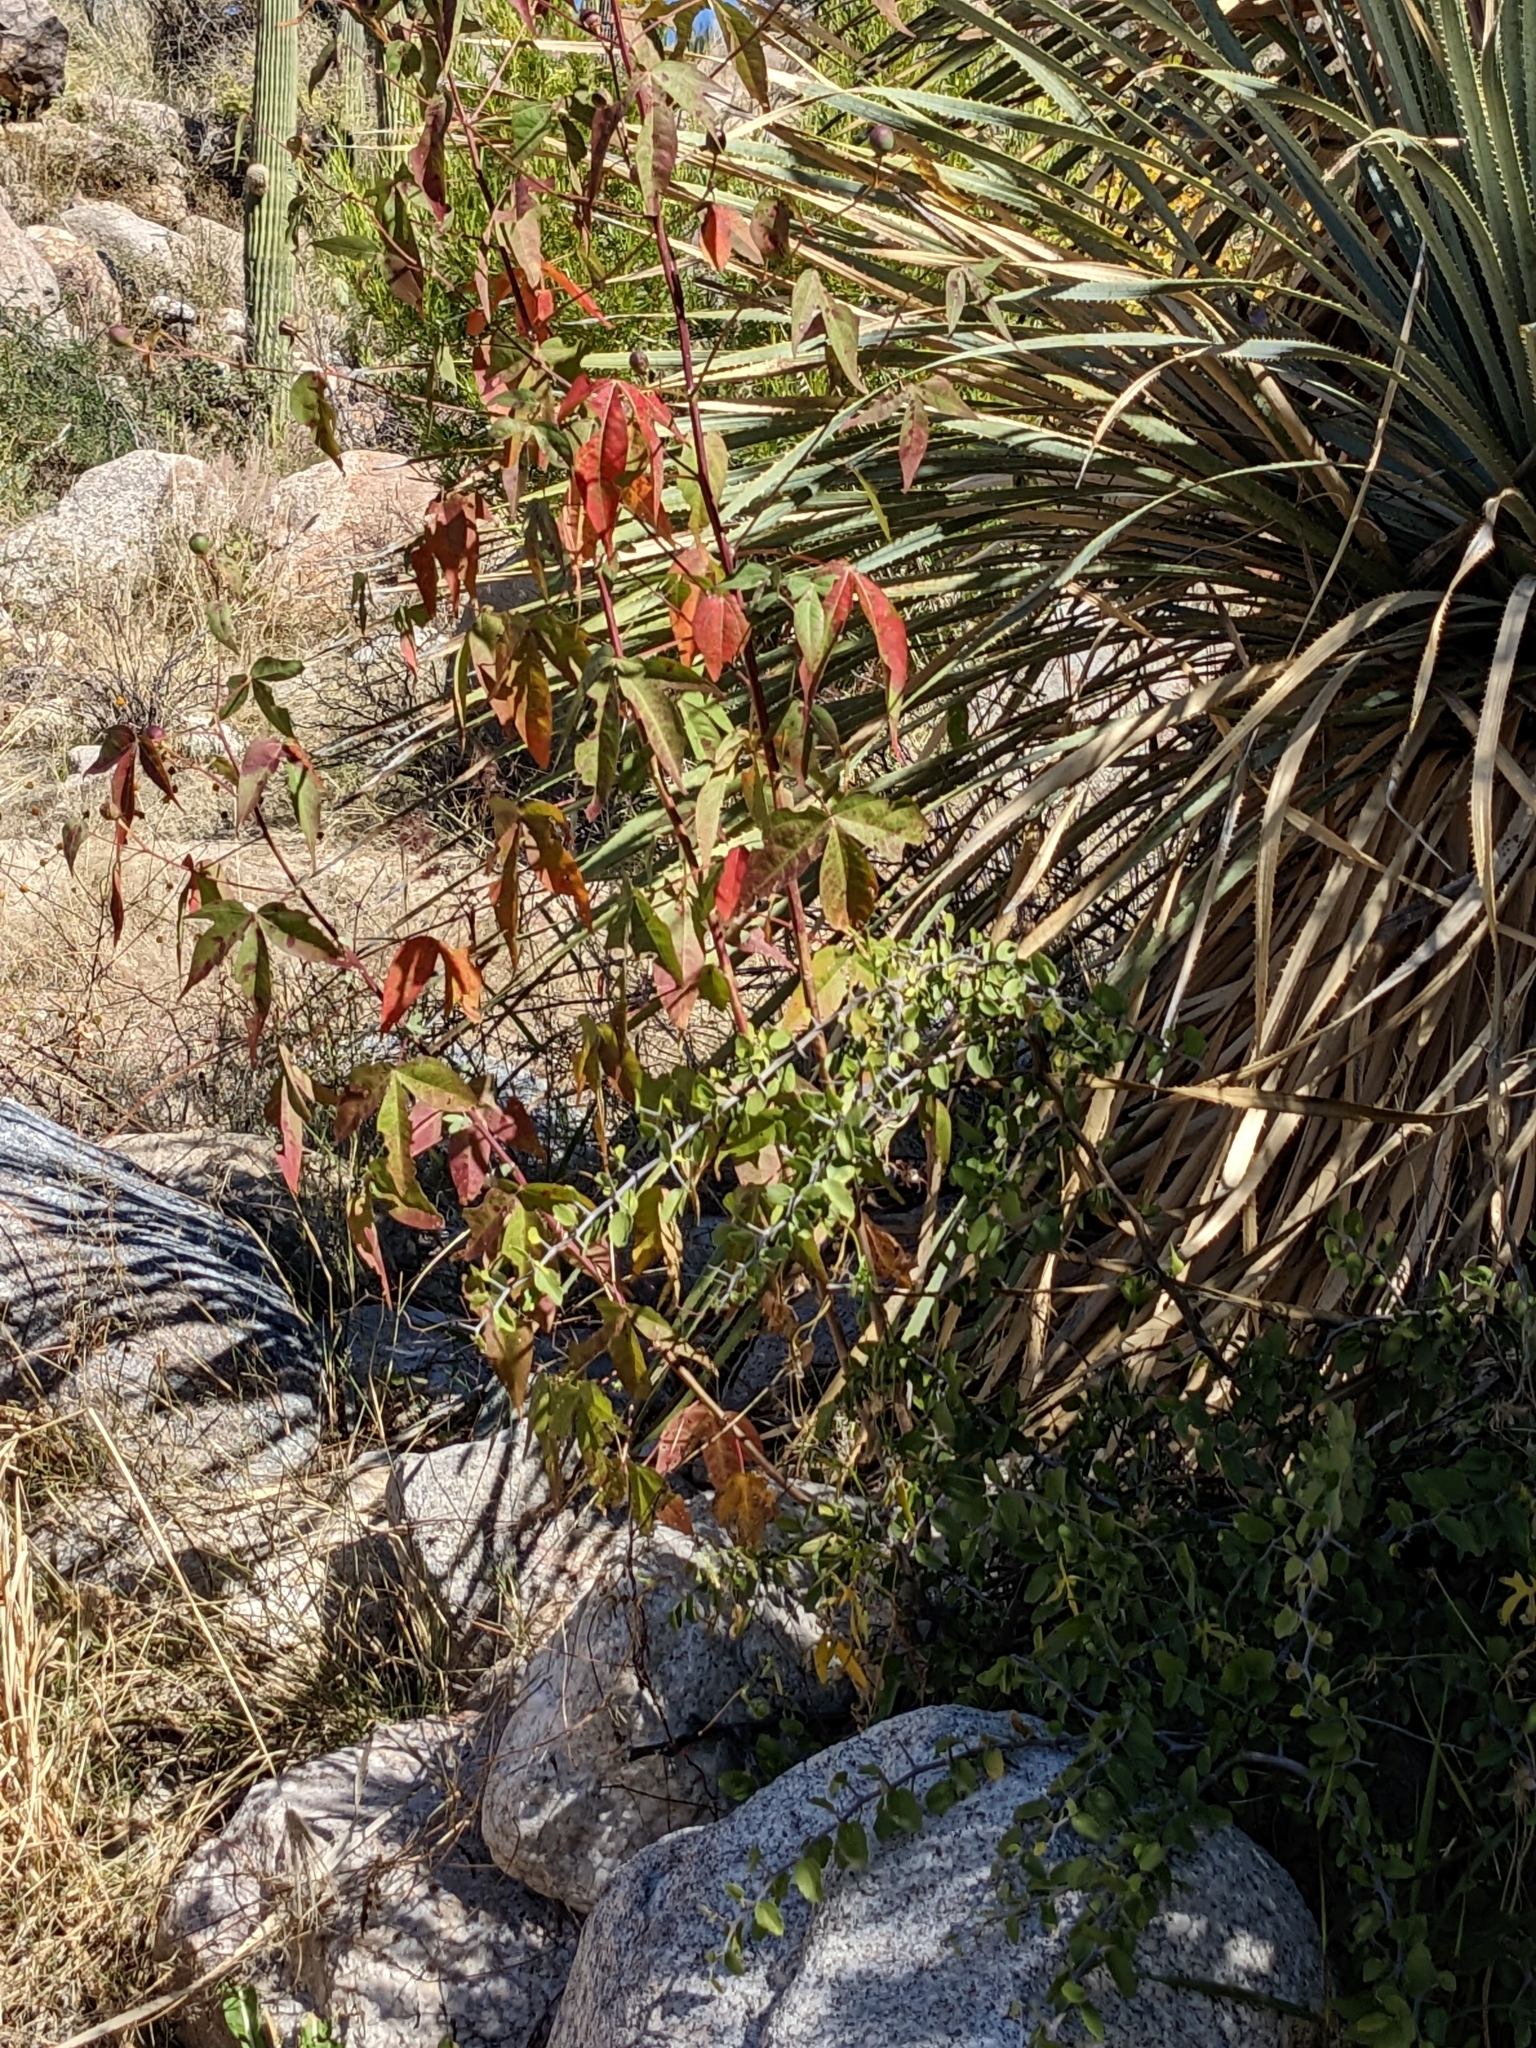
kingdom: Plantae
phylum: Tracheophyta
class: Magnoliopsida
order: Malvales
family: Malvaceae
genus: Gossypium
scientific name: Gossypium thurberi
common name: Desert cotton
